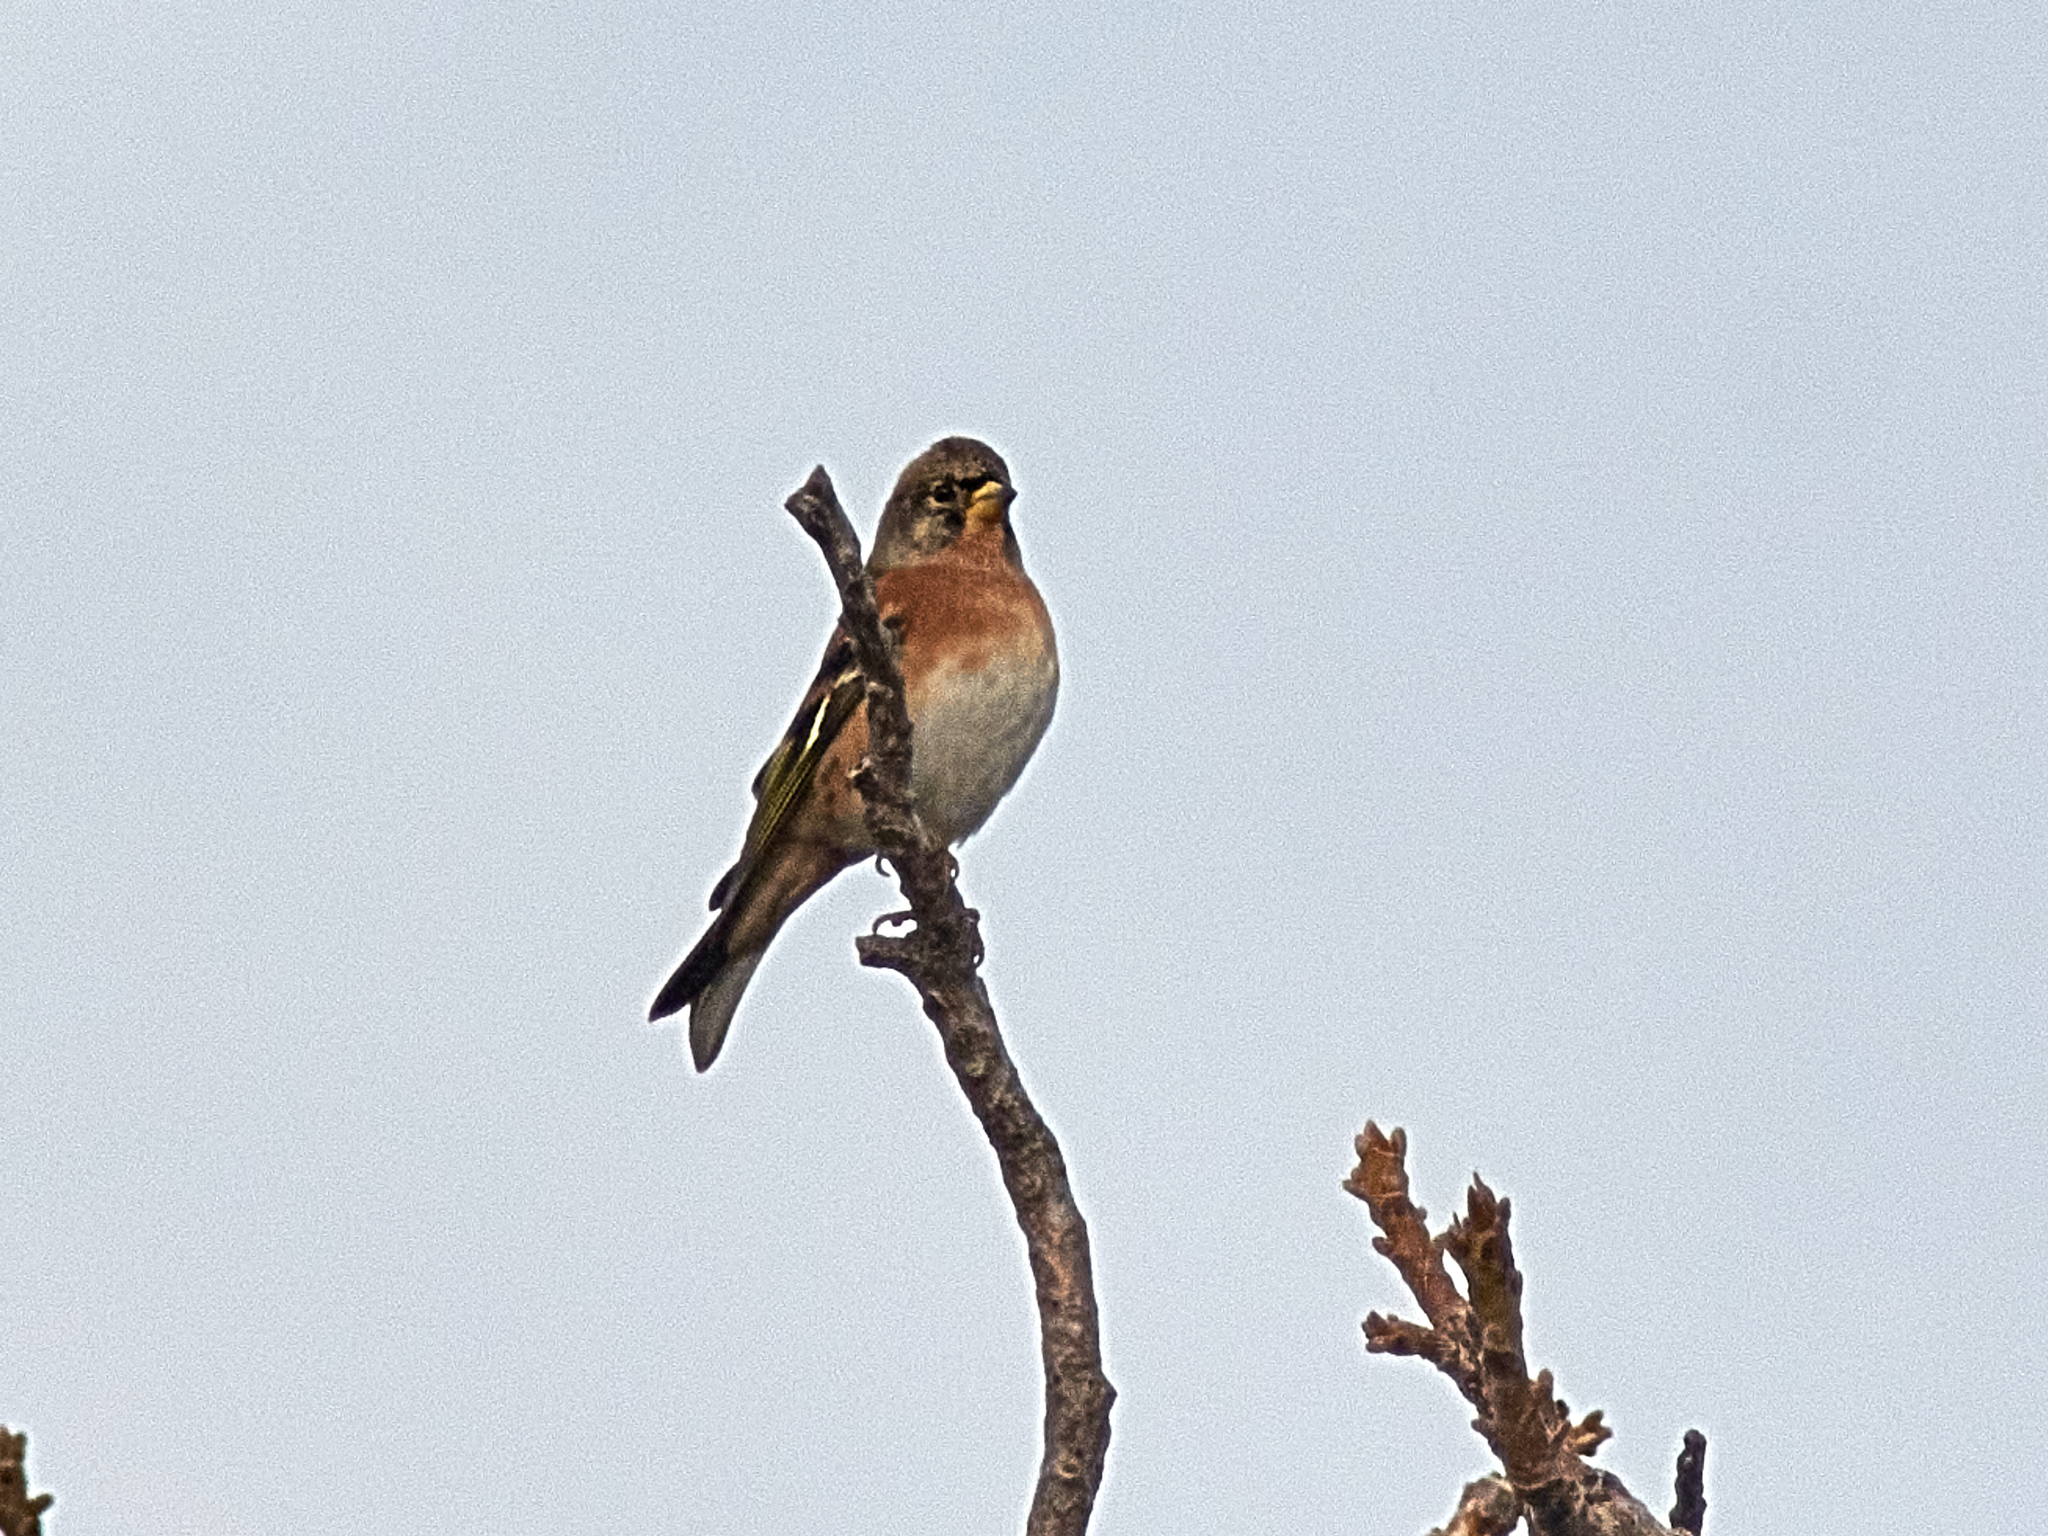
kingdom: Animalia
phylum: Chordata
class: Aves
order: Passeriformes
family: Fringillidae
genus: Fringilla
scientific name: Fringilla montifringilla
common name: Brambling
